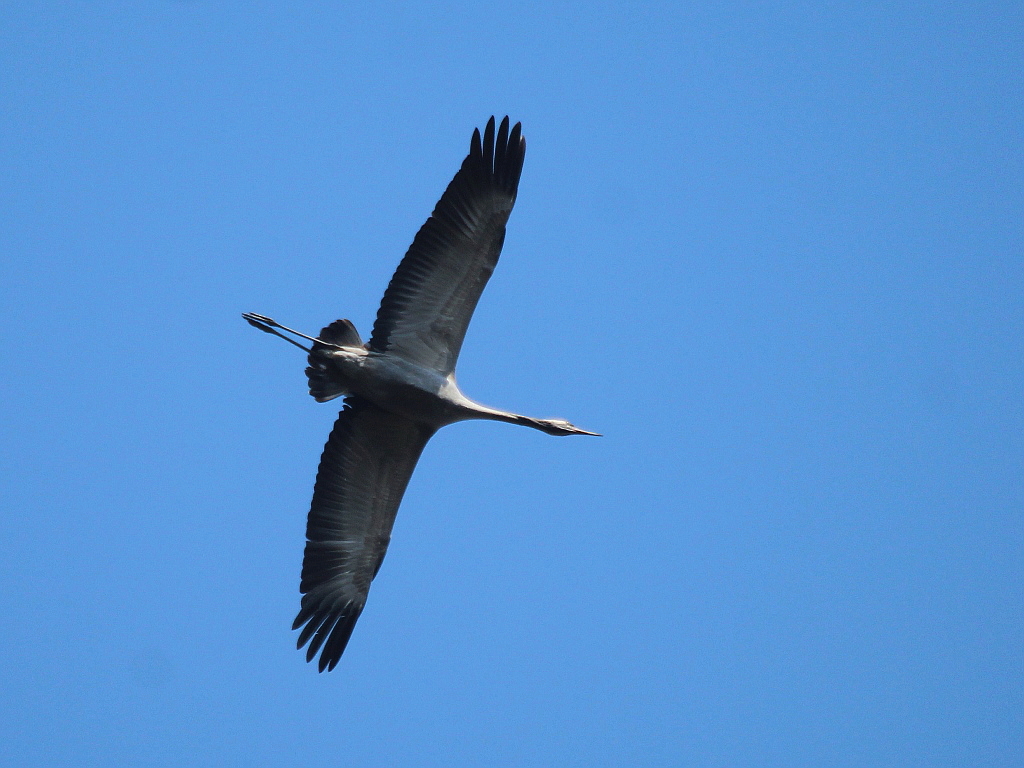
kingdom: Animalia
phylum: Chordata
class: Aves
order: Gruiformes
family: Gruidae
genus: Grus
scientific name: Grus grus
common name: Common crane
